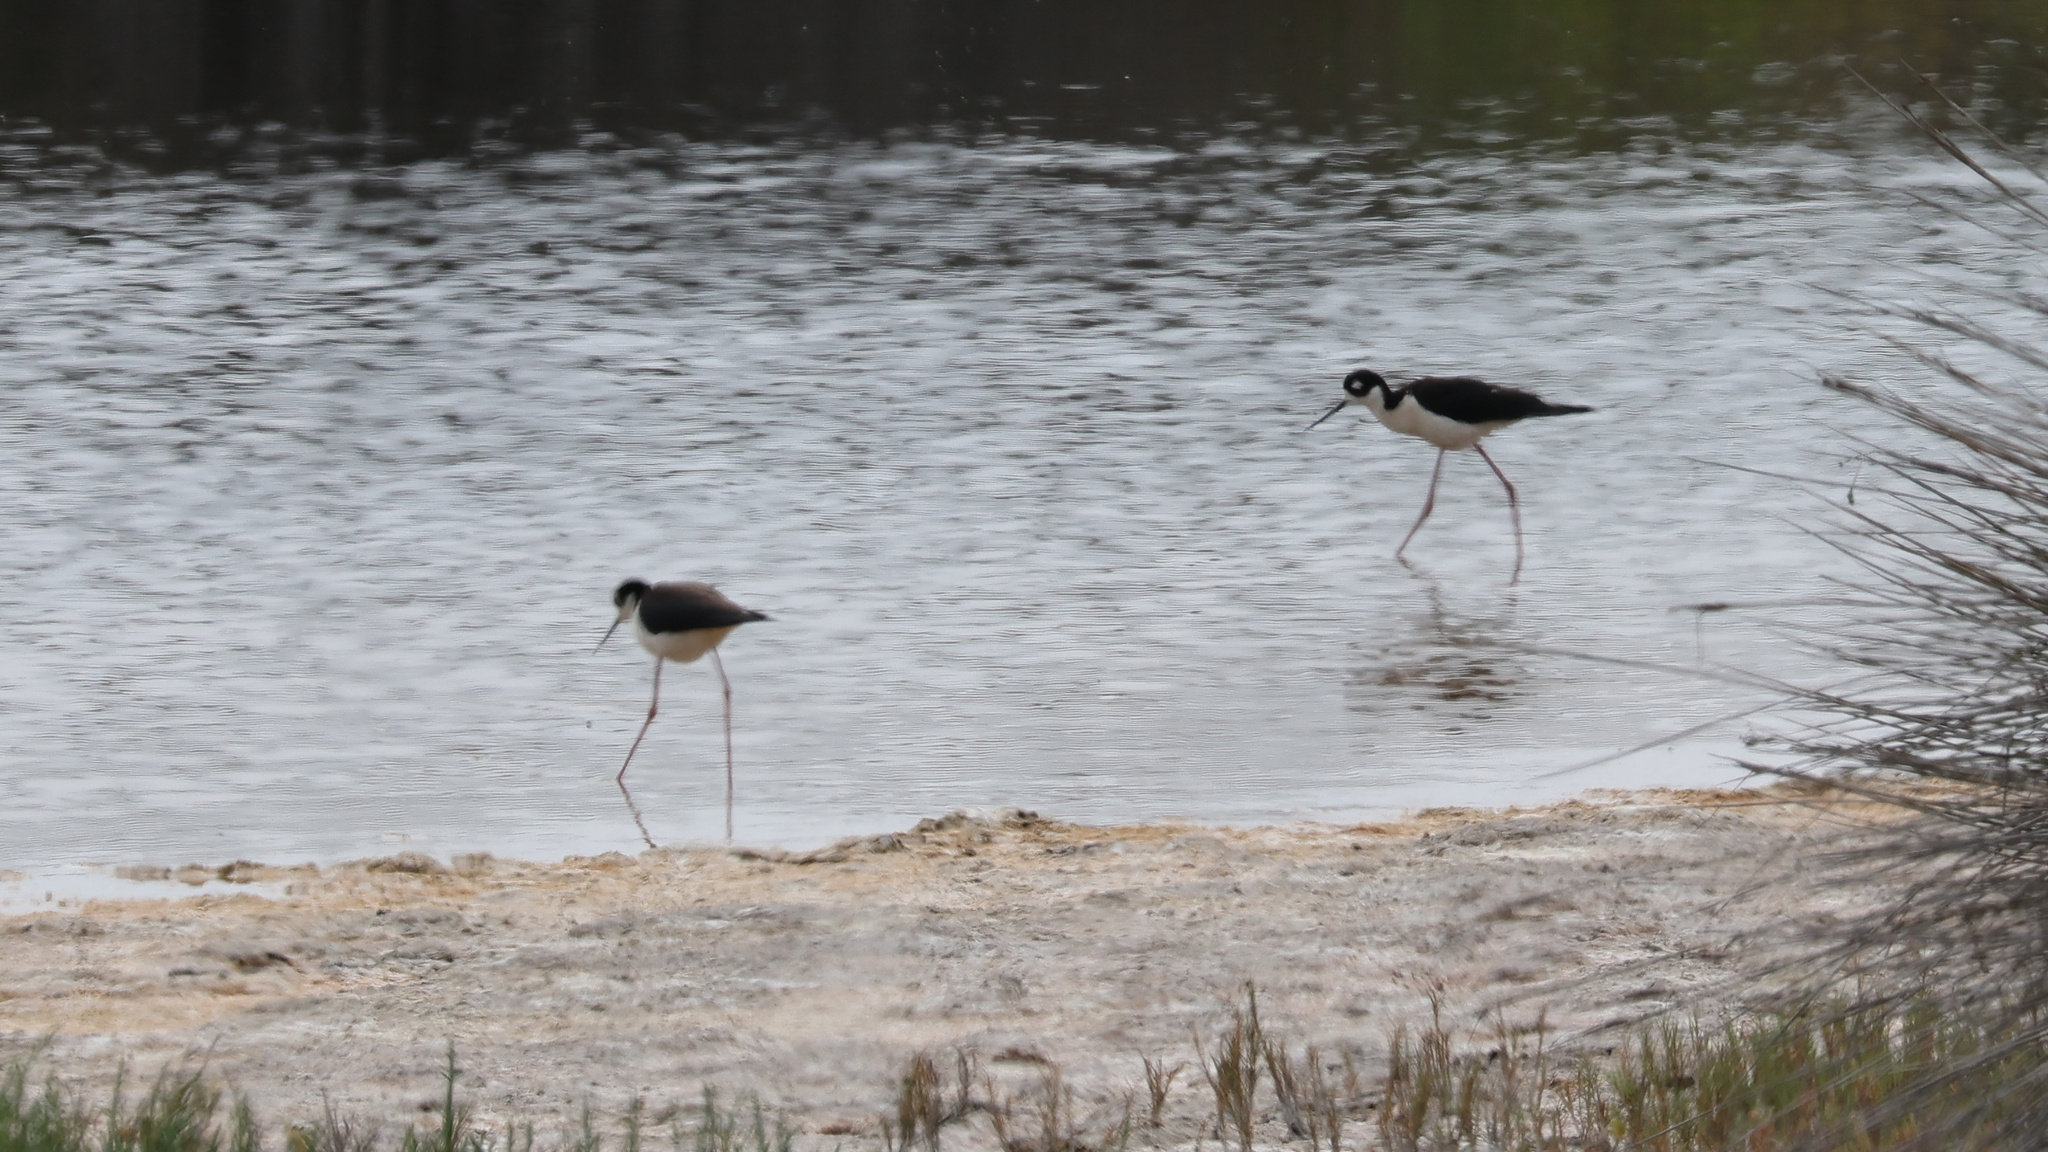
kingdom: Animalia
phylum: Chordata
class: Aves
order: Charadriiformes
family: Recurvirostridae
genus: Himantopus
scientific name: Himantopus mexicanus
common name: Black-necked stilt
